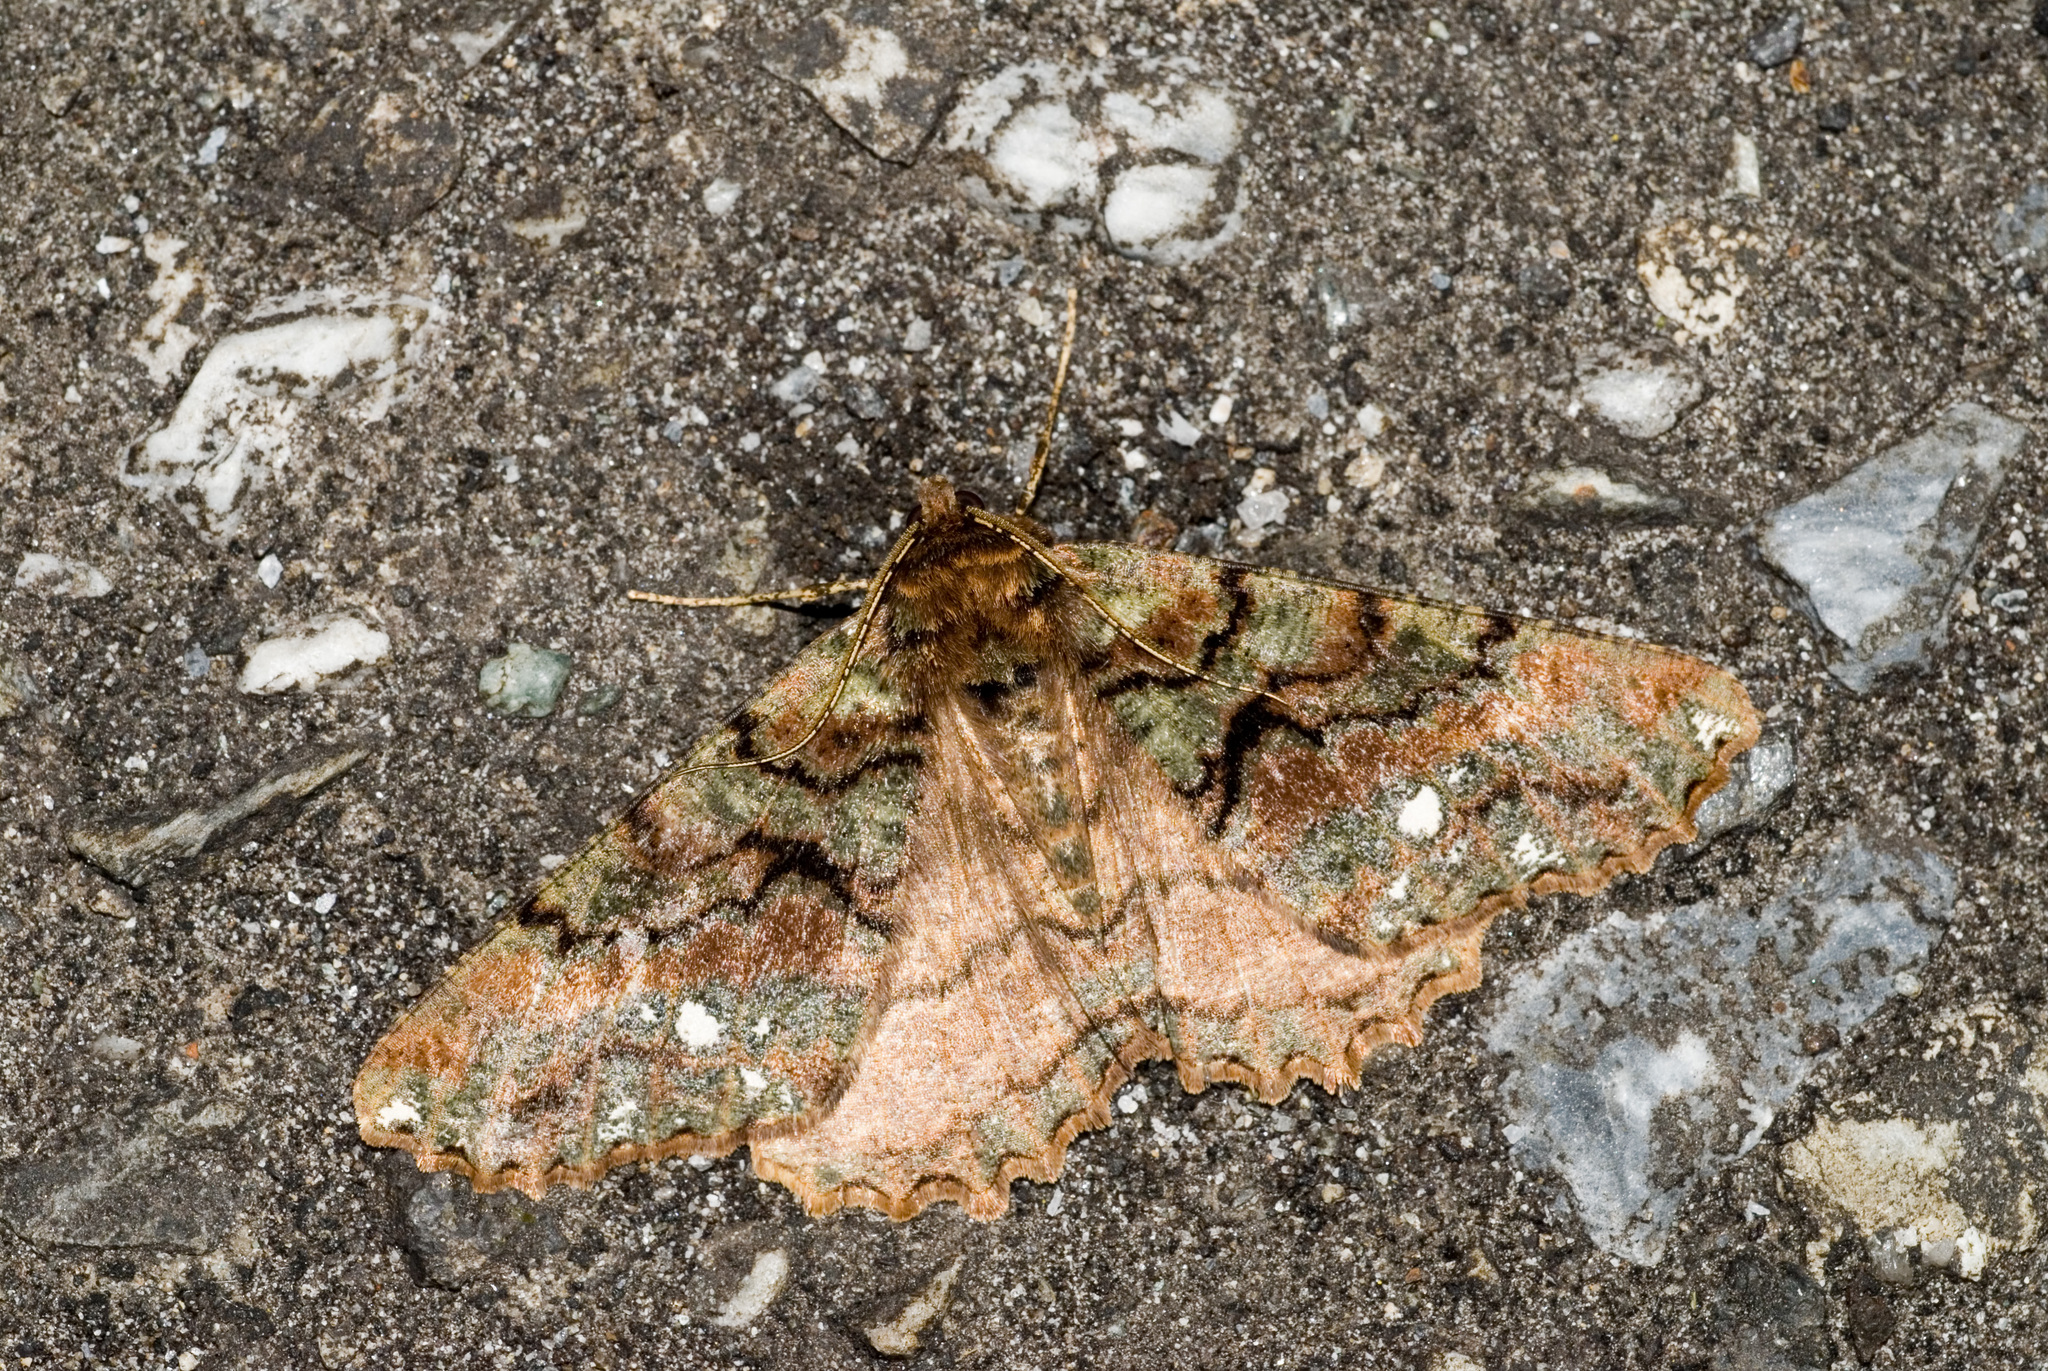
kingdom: Animalia
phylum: Arthropoda
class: Insecta
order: Lepidoptera
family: Geometridae
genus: Cryptochorina
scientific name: Cryptochorina polychroia
